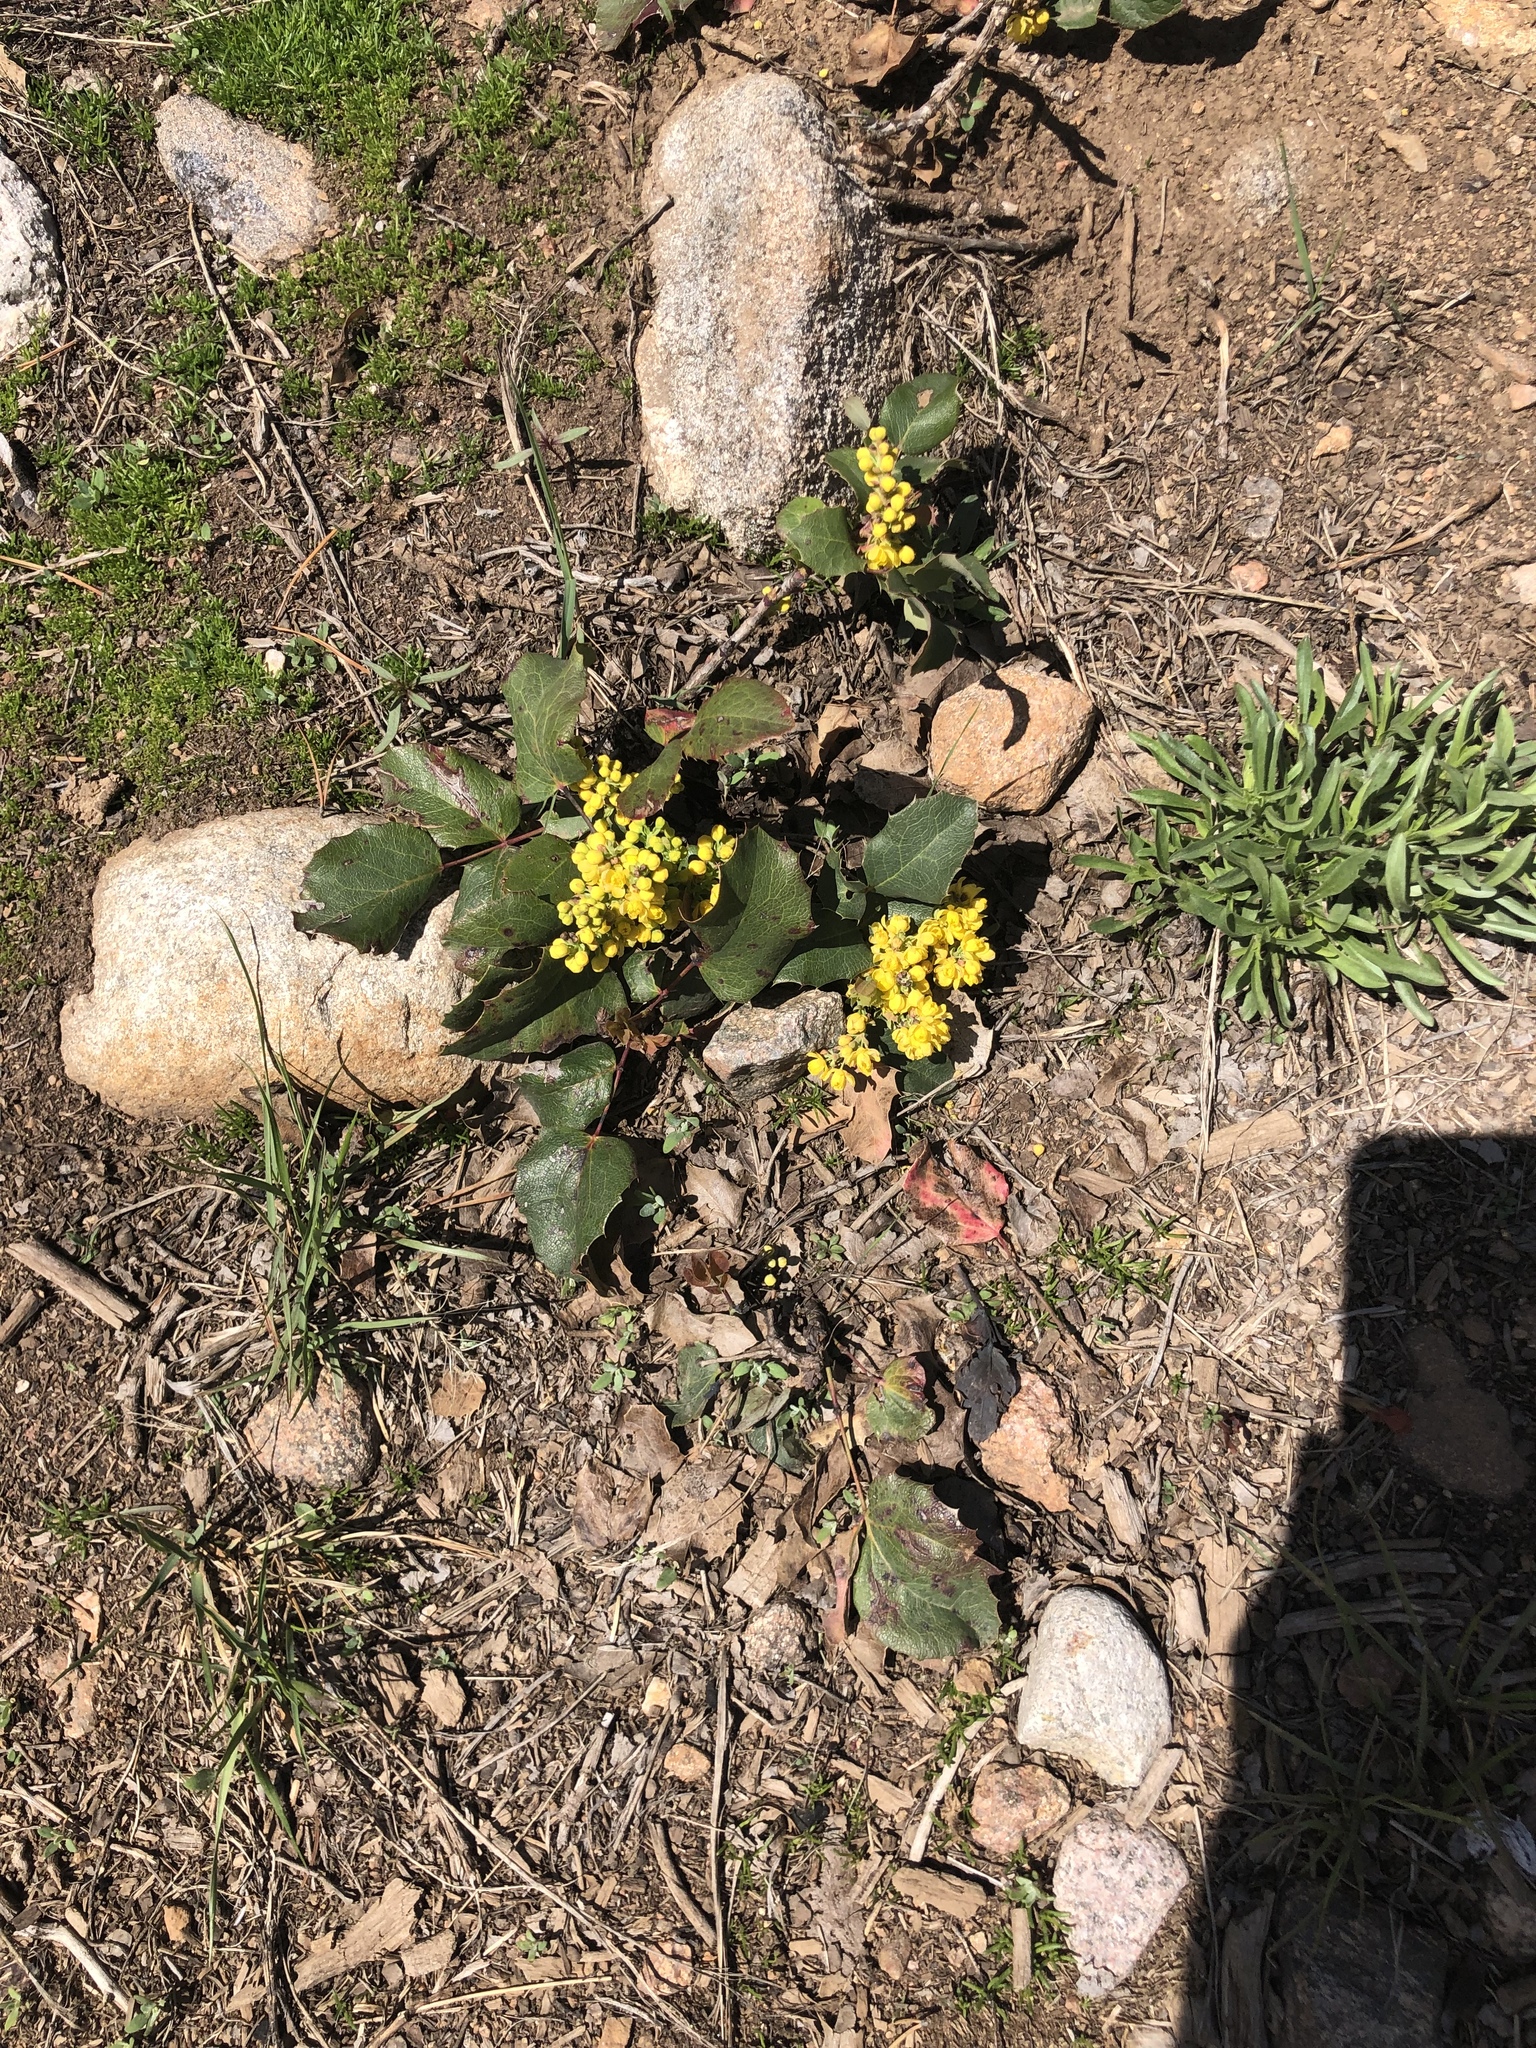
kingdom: Plantae
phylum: Tracheophyta
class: Magnoliopsida
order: Ranunculales
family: Berberidaceae
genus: Mahonia
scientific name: Mahonia repens
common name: Creeping oregon-grape
